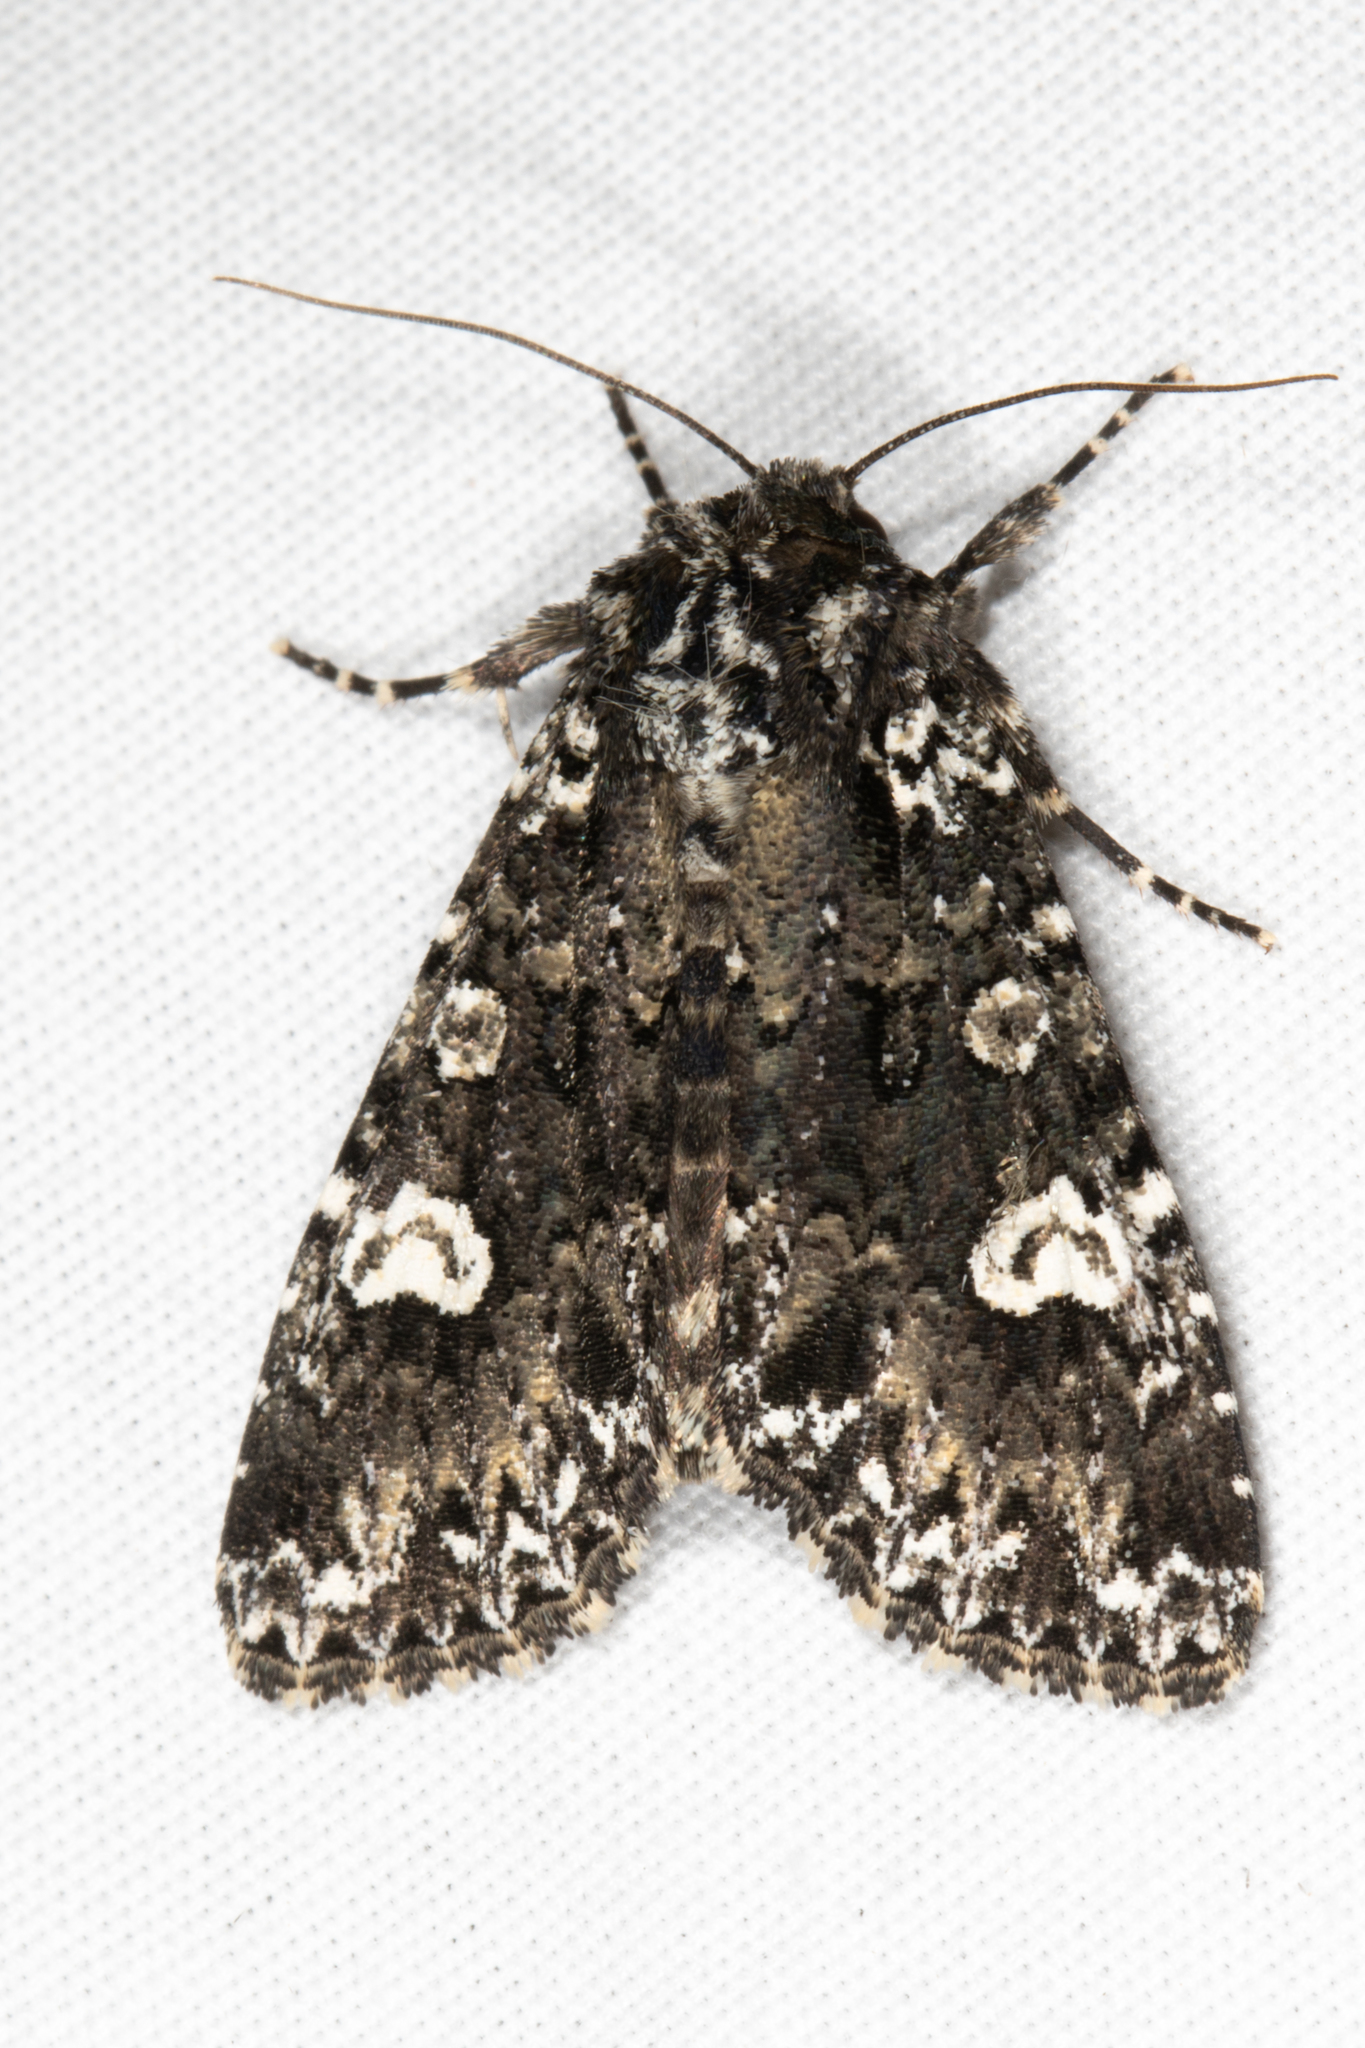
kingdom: Animalia
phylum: Arthropoda
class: Insecta
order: Lepidoptera
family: Noctuidae
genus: Melanchra
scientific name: Melanchra adjuncta
